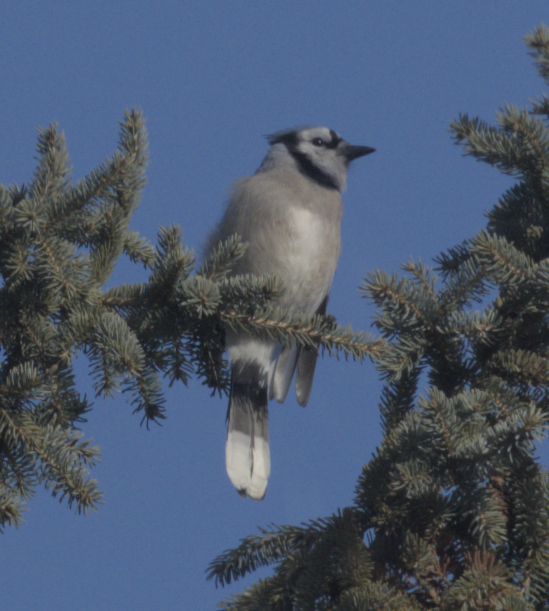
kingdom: Animalia
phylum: Chordata
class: Aves
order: Passeriformes
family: Corvidae
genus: Cyanocitta
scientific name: Cyanocitta cristata
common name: Blue jay
